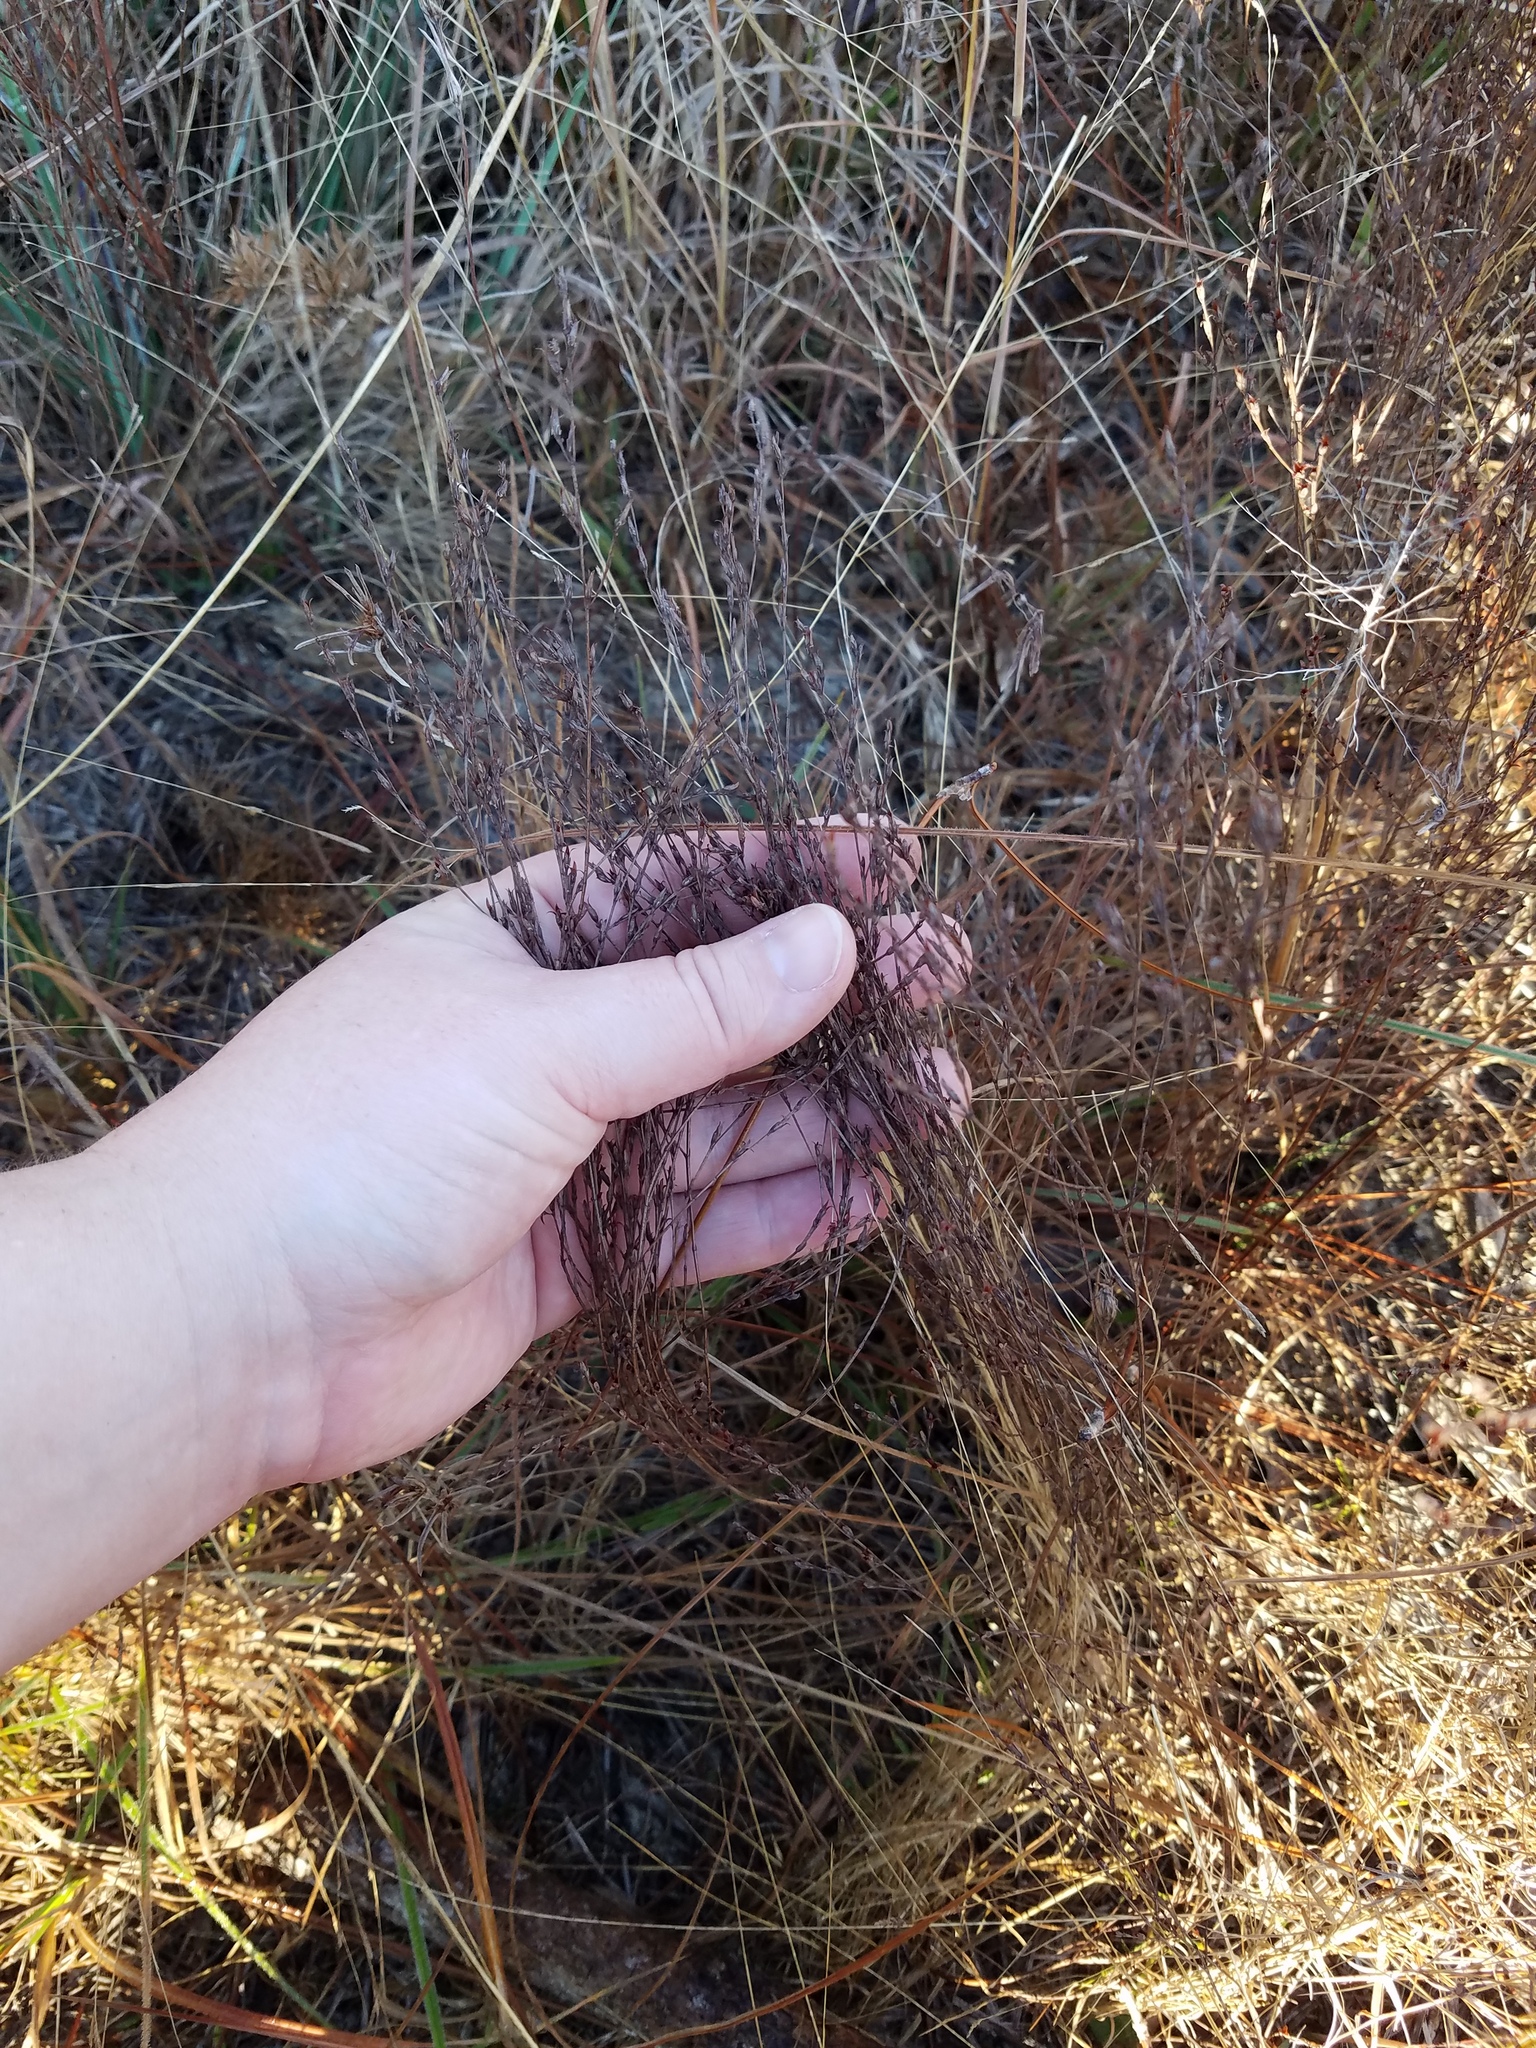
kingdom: Plantae
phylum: Tracheophyta
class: Magnoliopsida
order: Malpighiales
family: Hypericaceae
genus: Hypericum
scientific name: Hypericum gentianoides
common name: Gentian-leaved st. john's-wort
